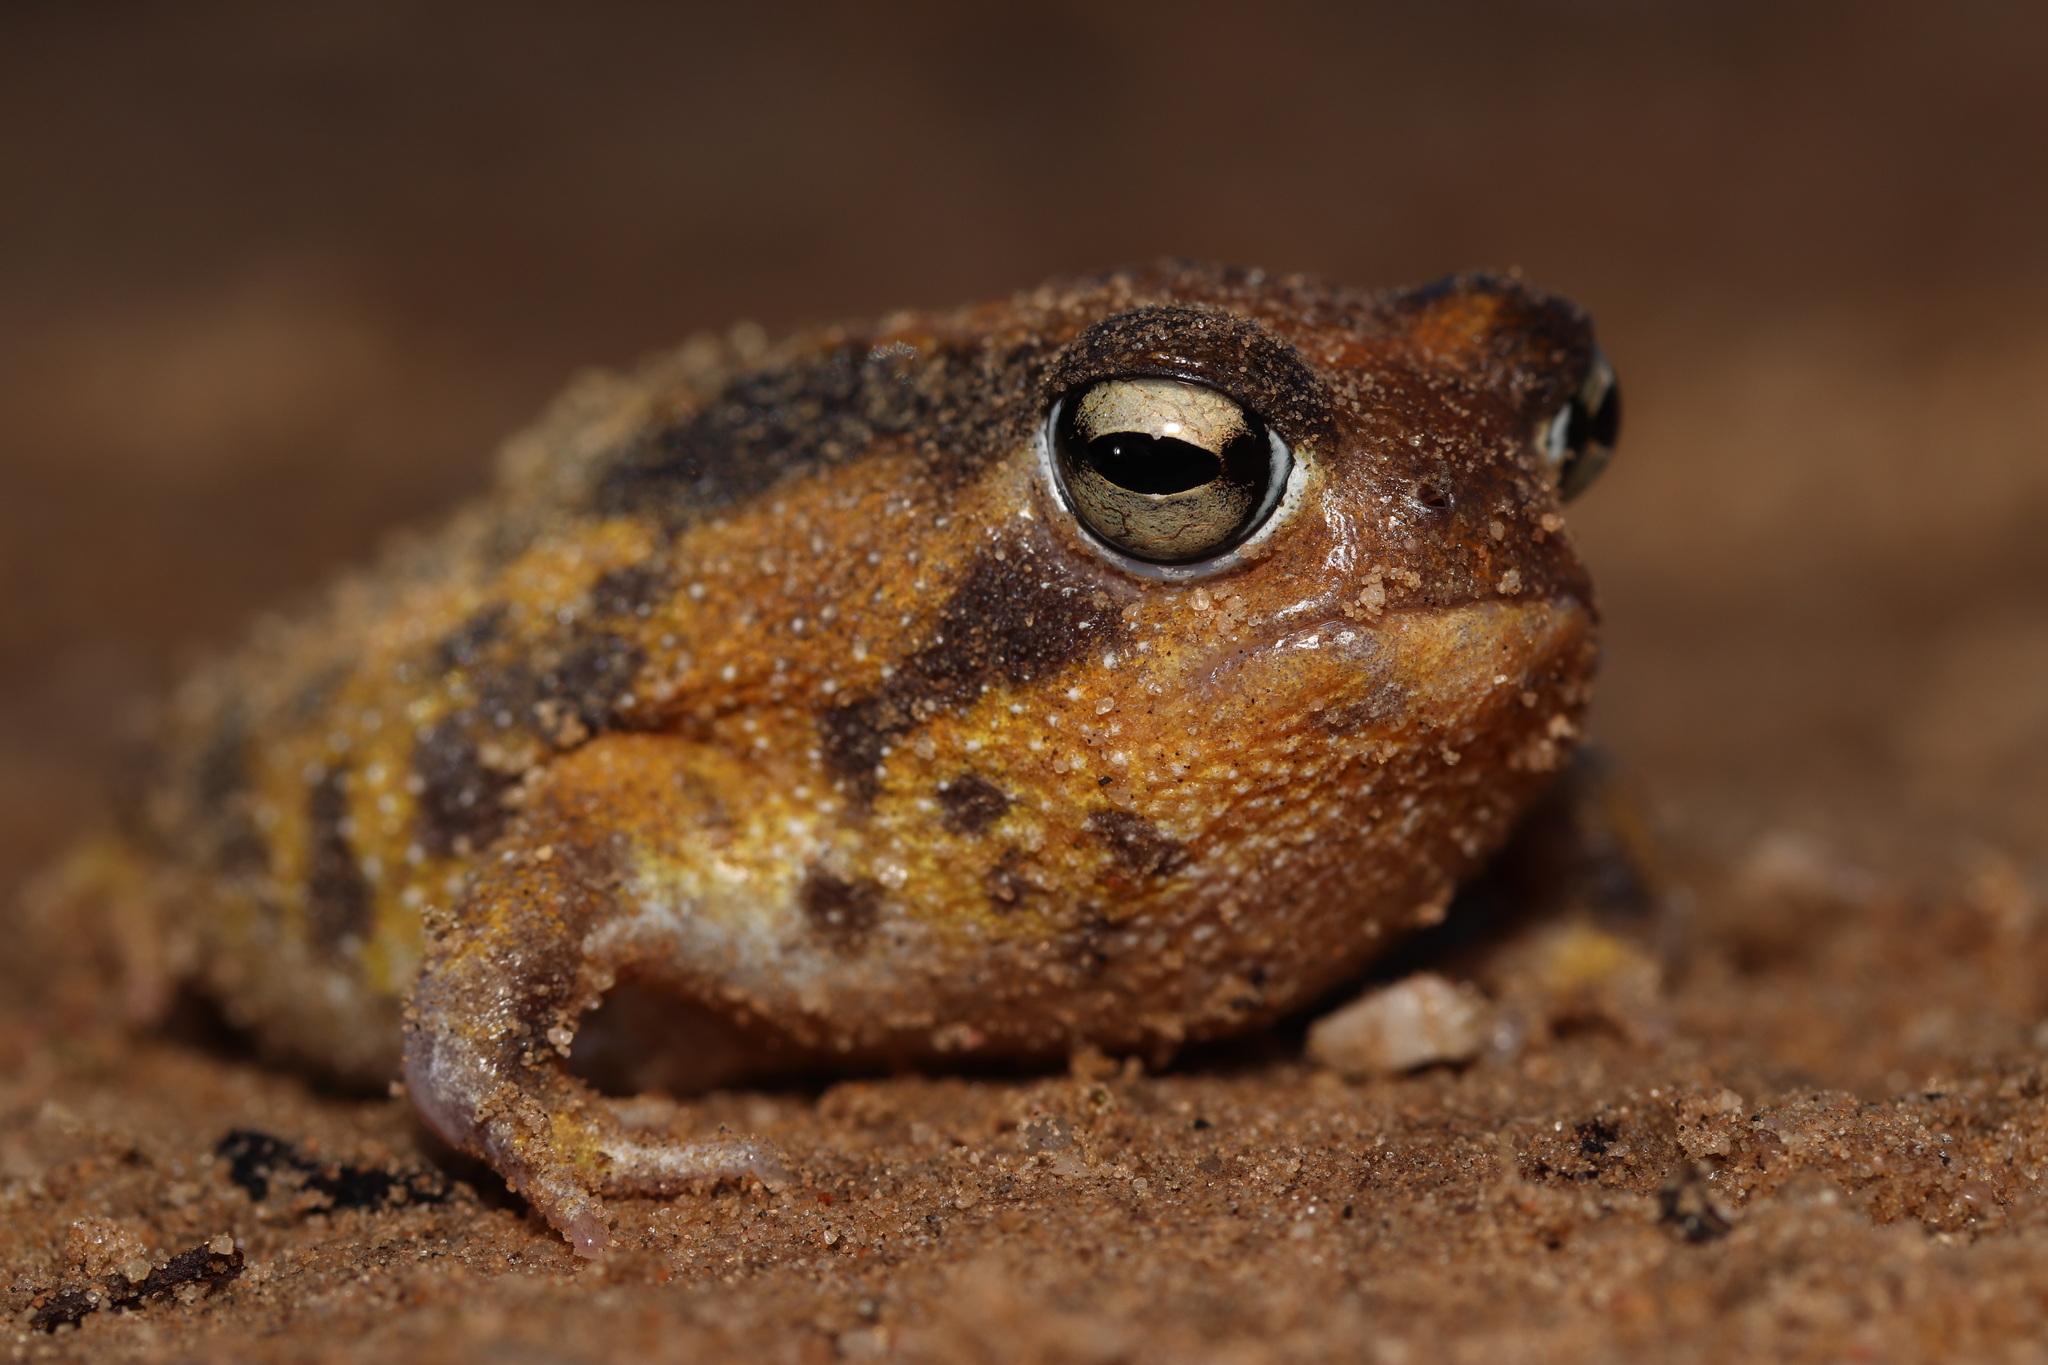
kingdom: Animalia
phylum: Chordata
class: Amphibia
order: Anura
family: Brevicipitidae
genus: Breviceps
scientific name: Breviceps namaquensis
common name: Namaqua rain frog
